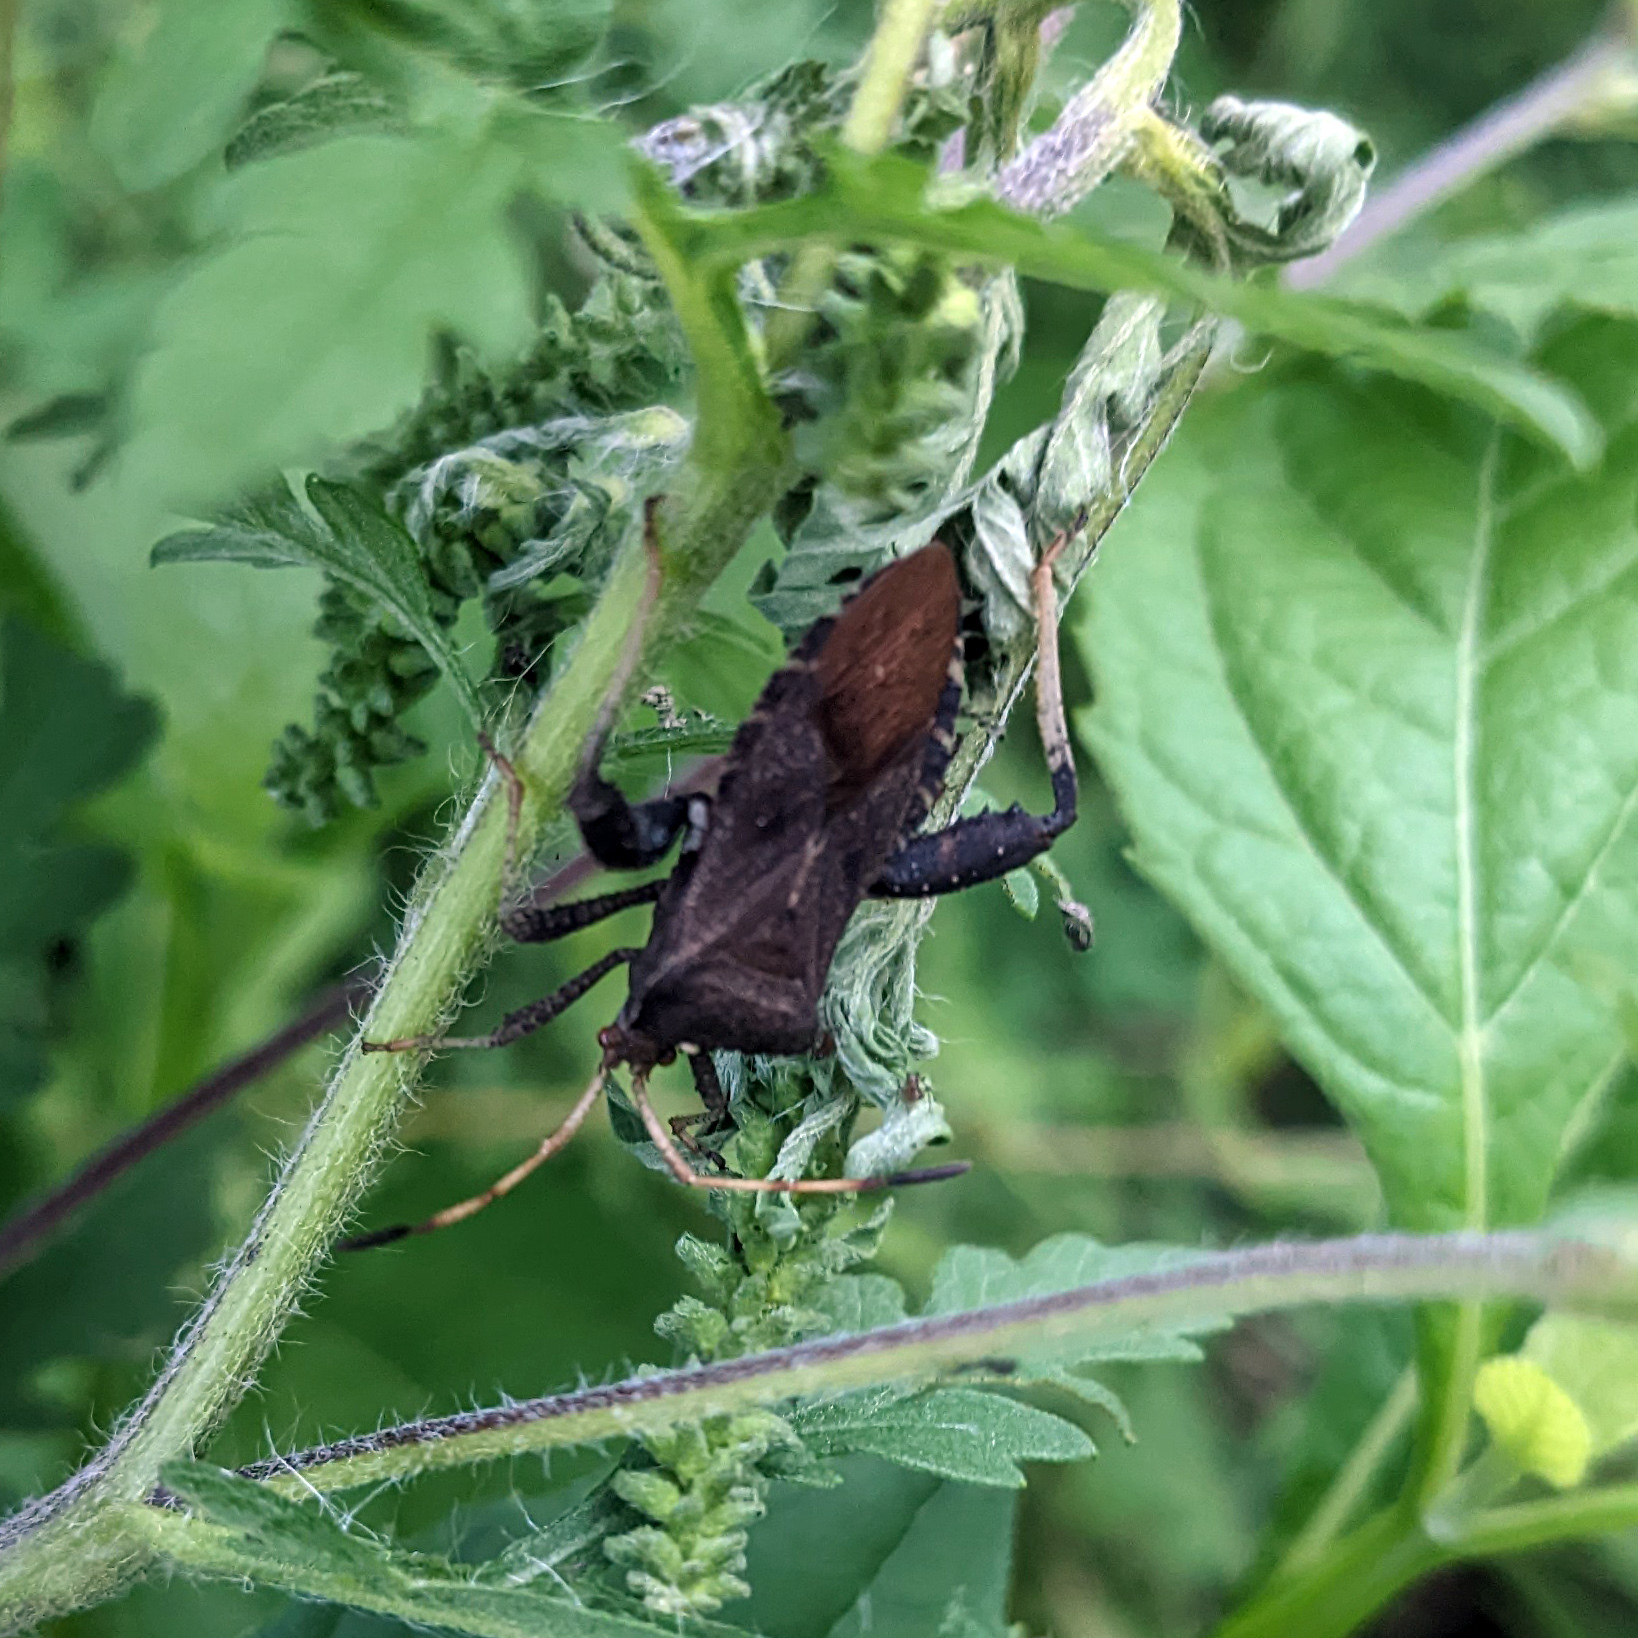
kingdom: Animalia
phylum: Arthropoda
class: Insecta
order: Hemiptera
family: Coreidae
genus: Euthochtha
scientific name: Euthochtha galeator
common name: Helmeted squash bug
